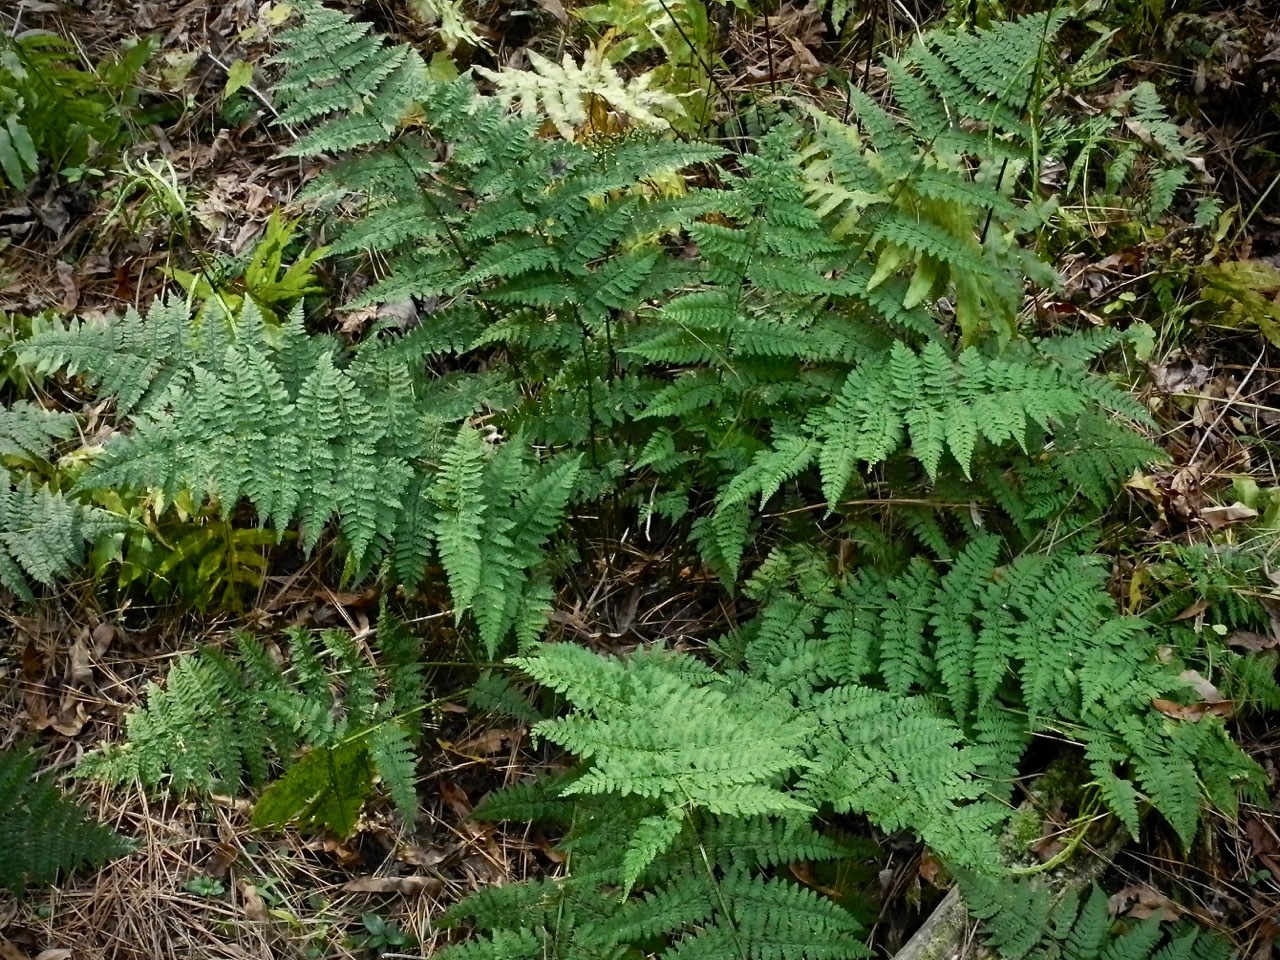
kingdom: Plantae
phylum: Tracheophyta
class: Polypodiopsida
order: Polypodiales
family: Dryopteridaceae
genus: Dryopteris
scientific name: Dryopteris intermedia
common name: Evergreen wood fern
